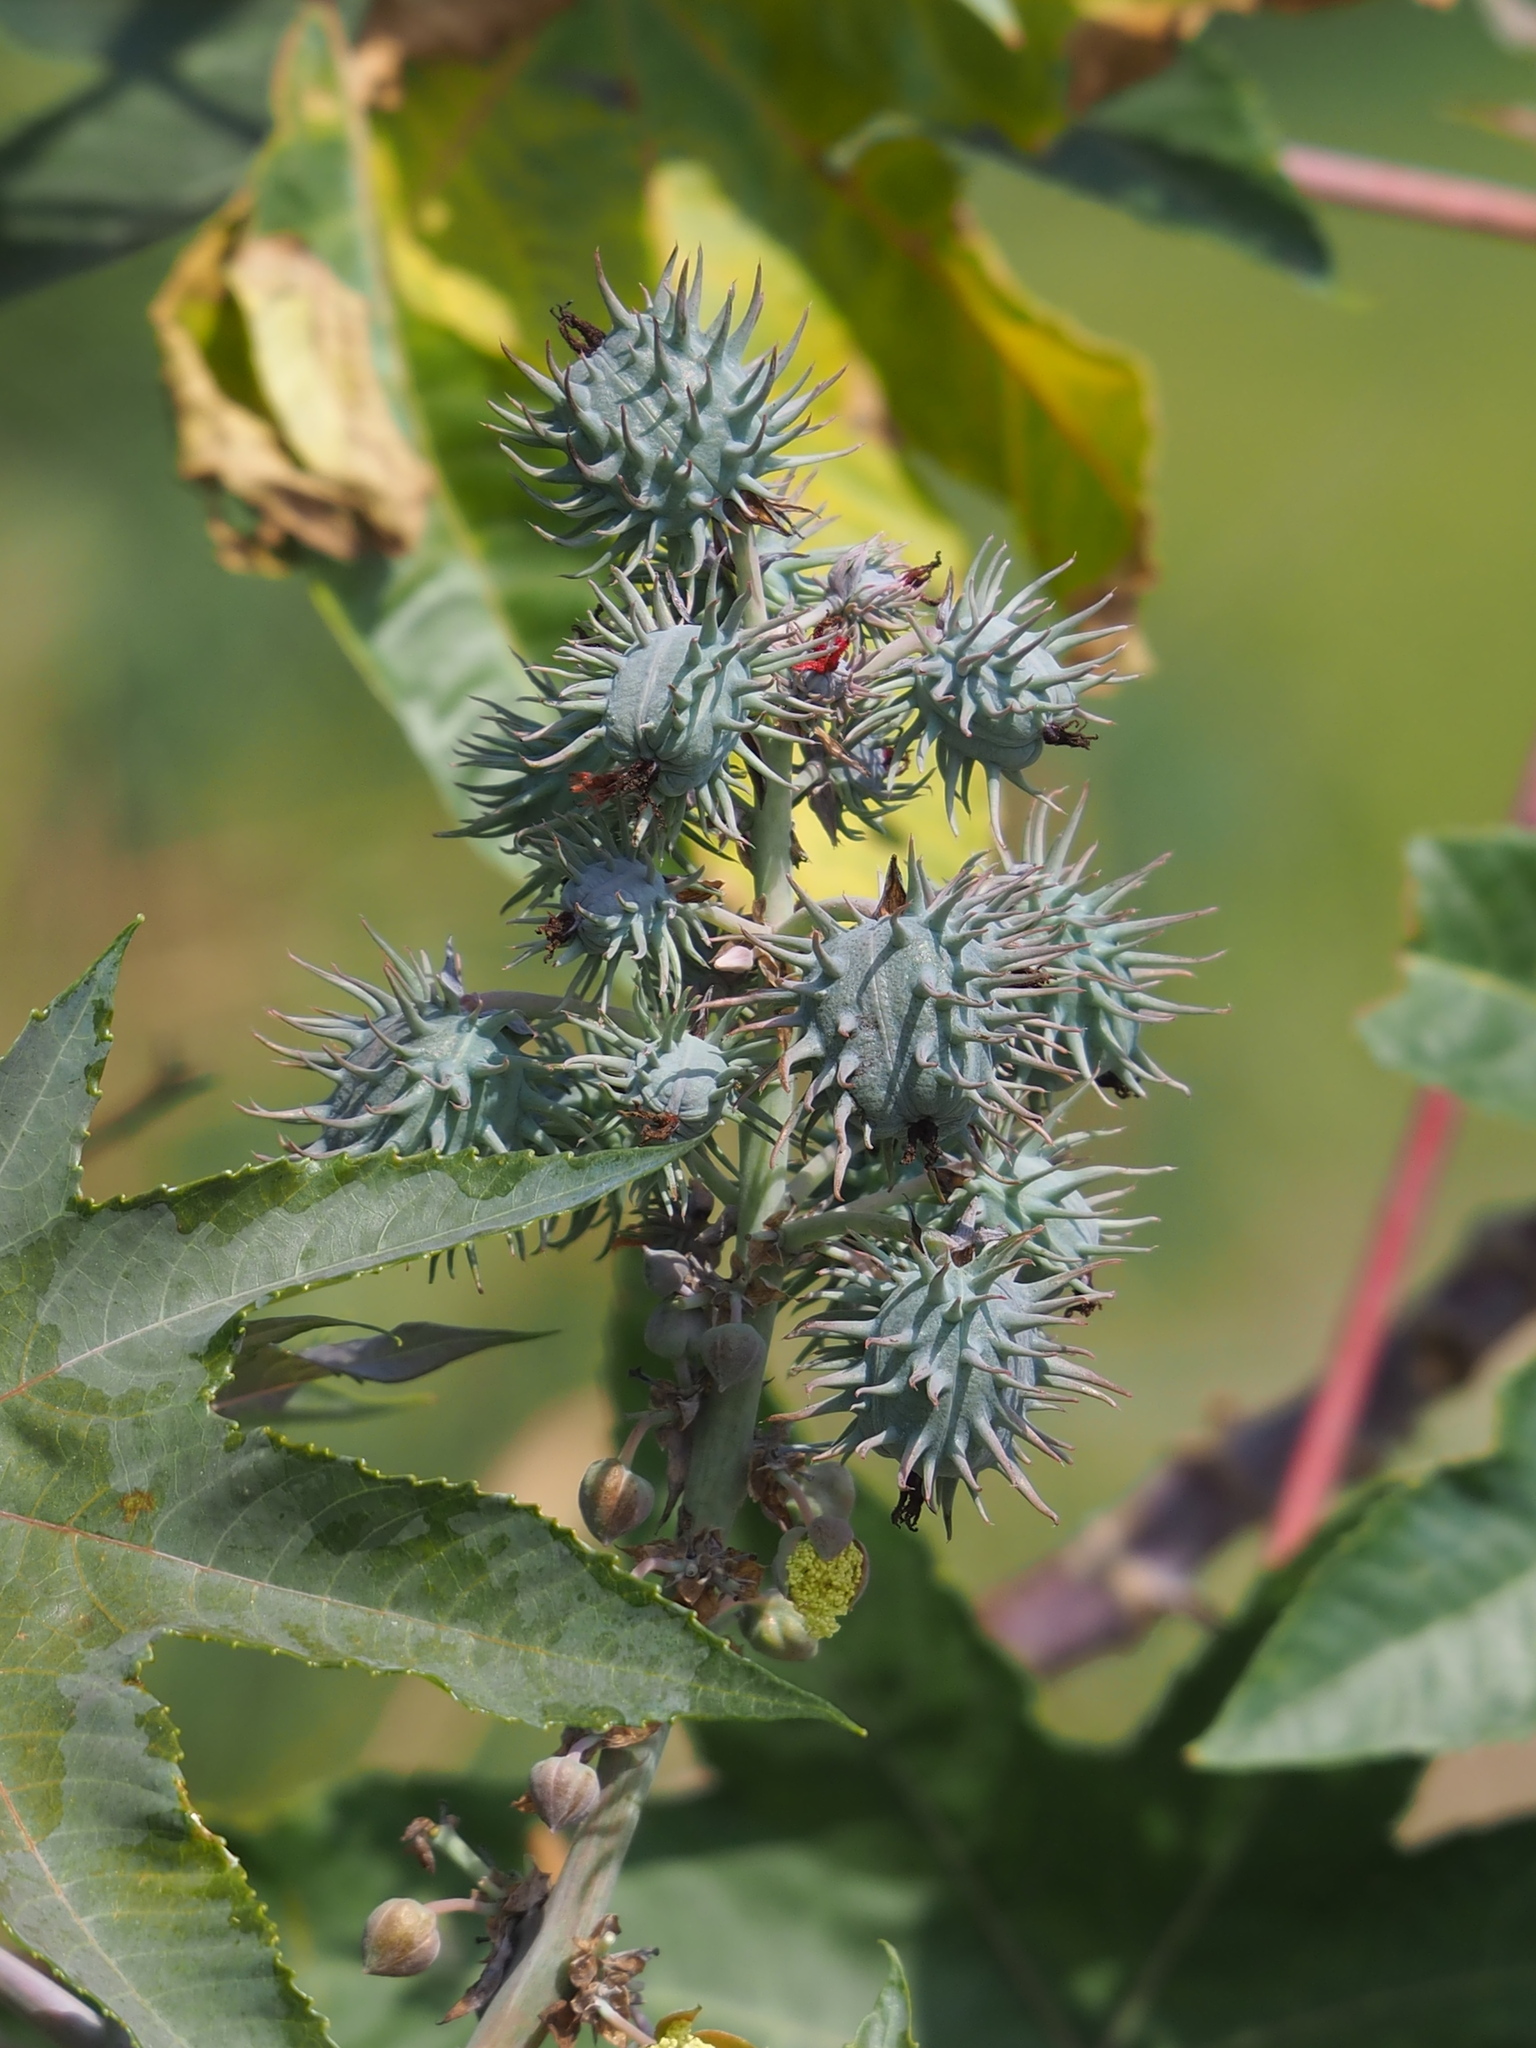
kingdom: Plantae
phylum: Tracheophyta
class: Magnoliopsida
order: Malpighiales
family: Euphorbiaceae
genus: Ricinus
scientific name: Ricinus communis
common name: Castor-oil-plant
